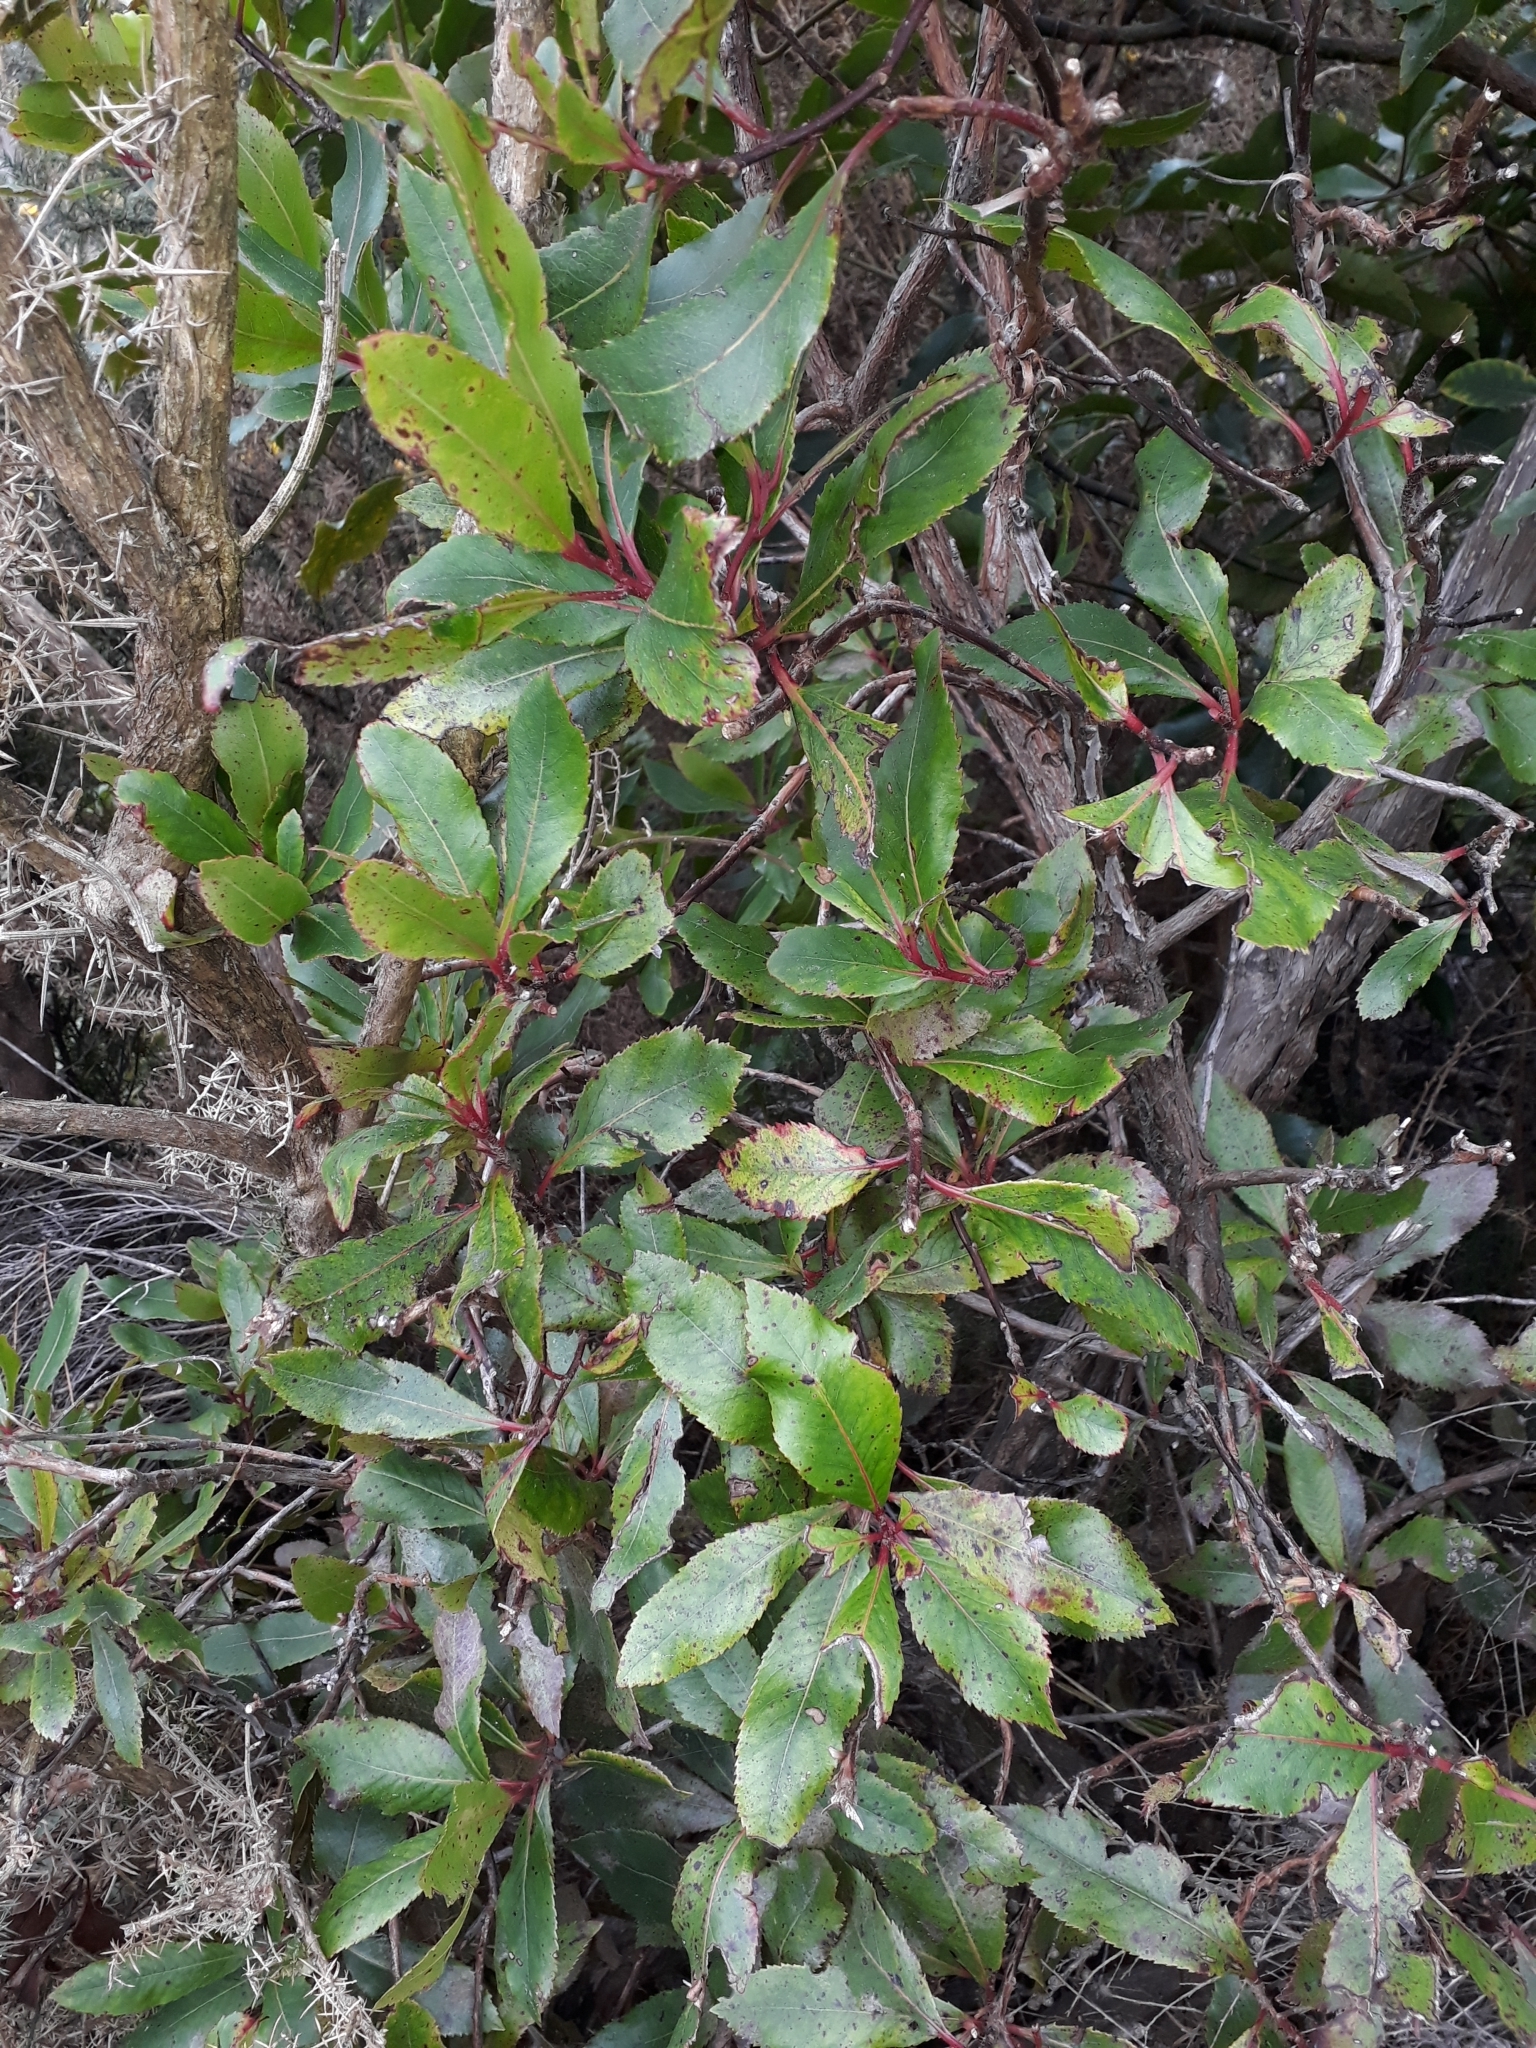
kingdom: Plantae
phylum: Tracheophyta
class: Magnoliopsida
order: Ericales
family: Ericaceae
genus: Arbutus
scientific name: Arbutus unedo
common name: Strawberry-tree
